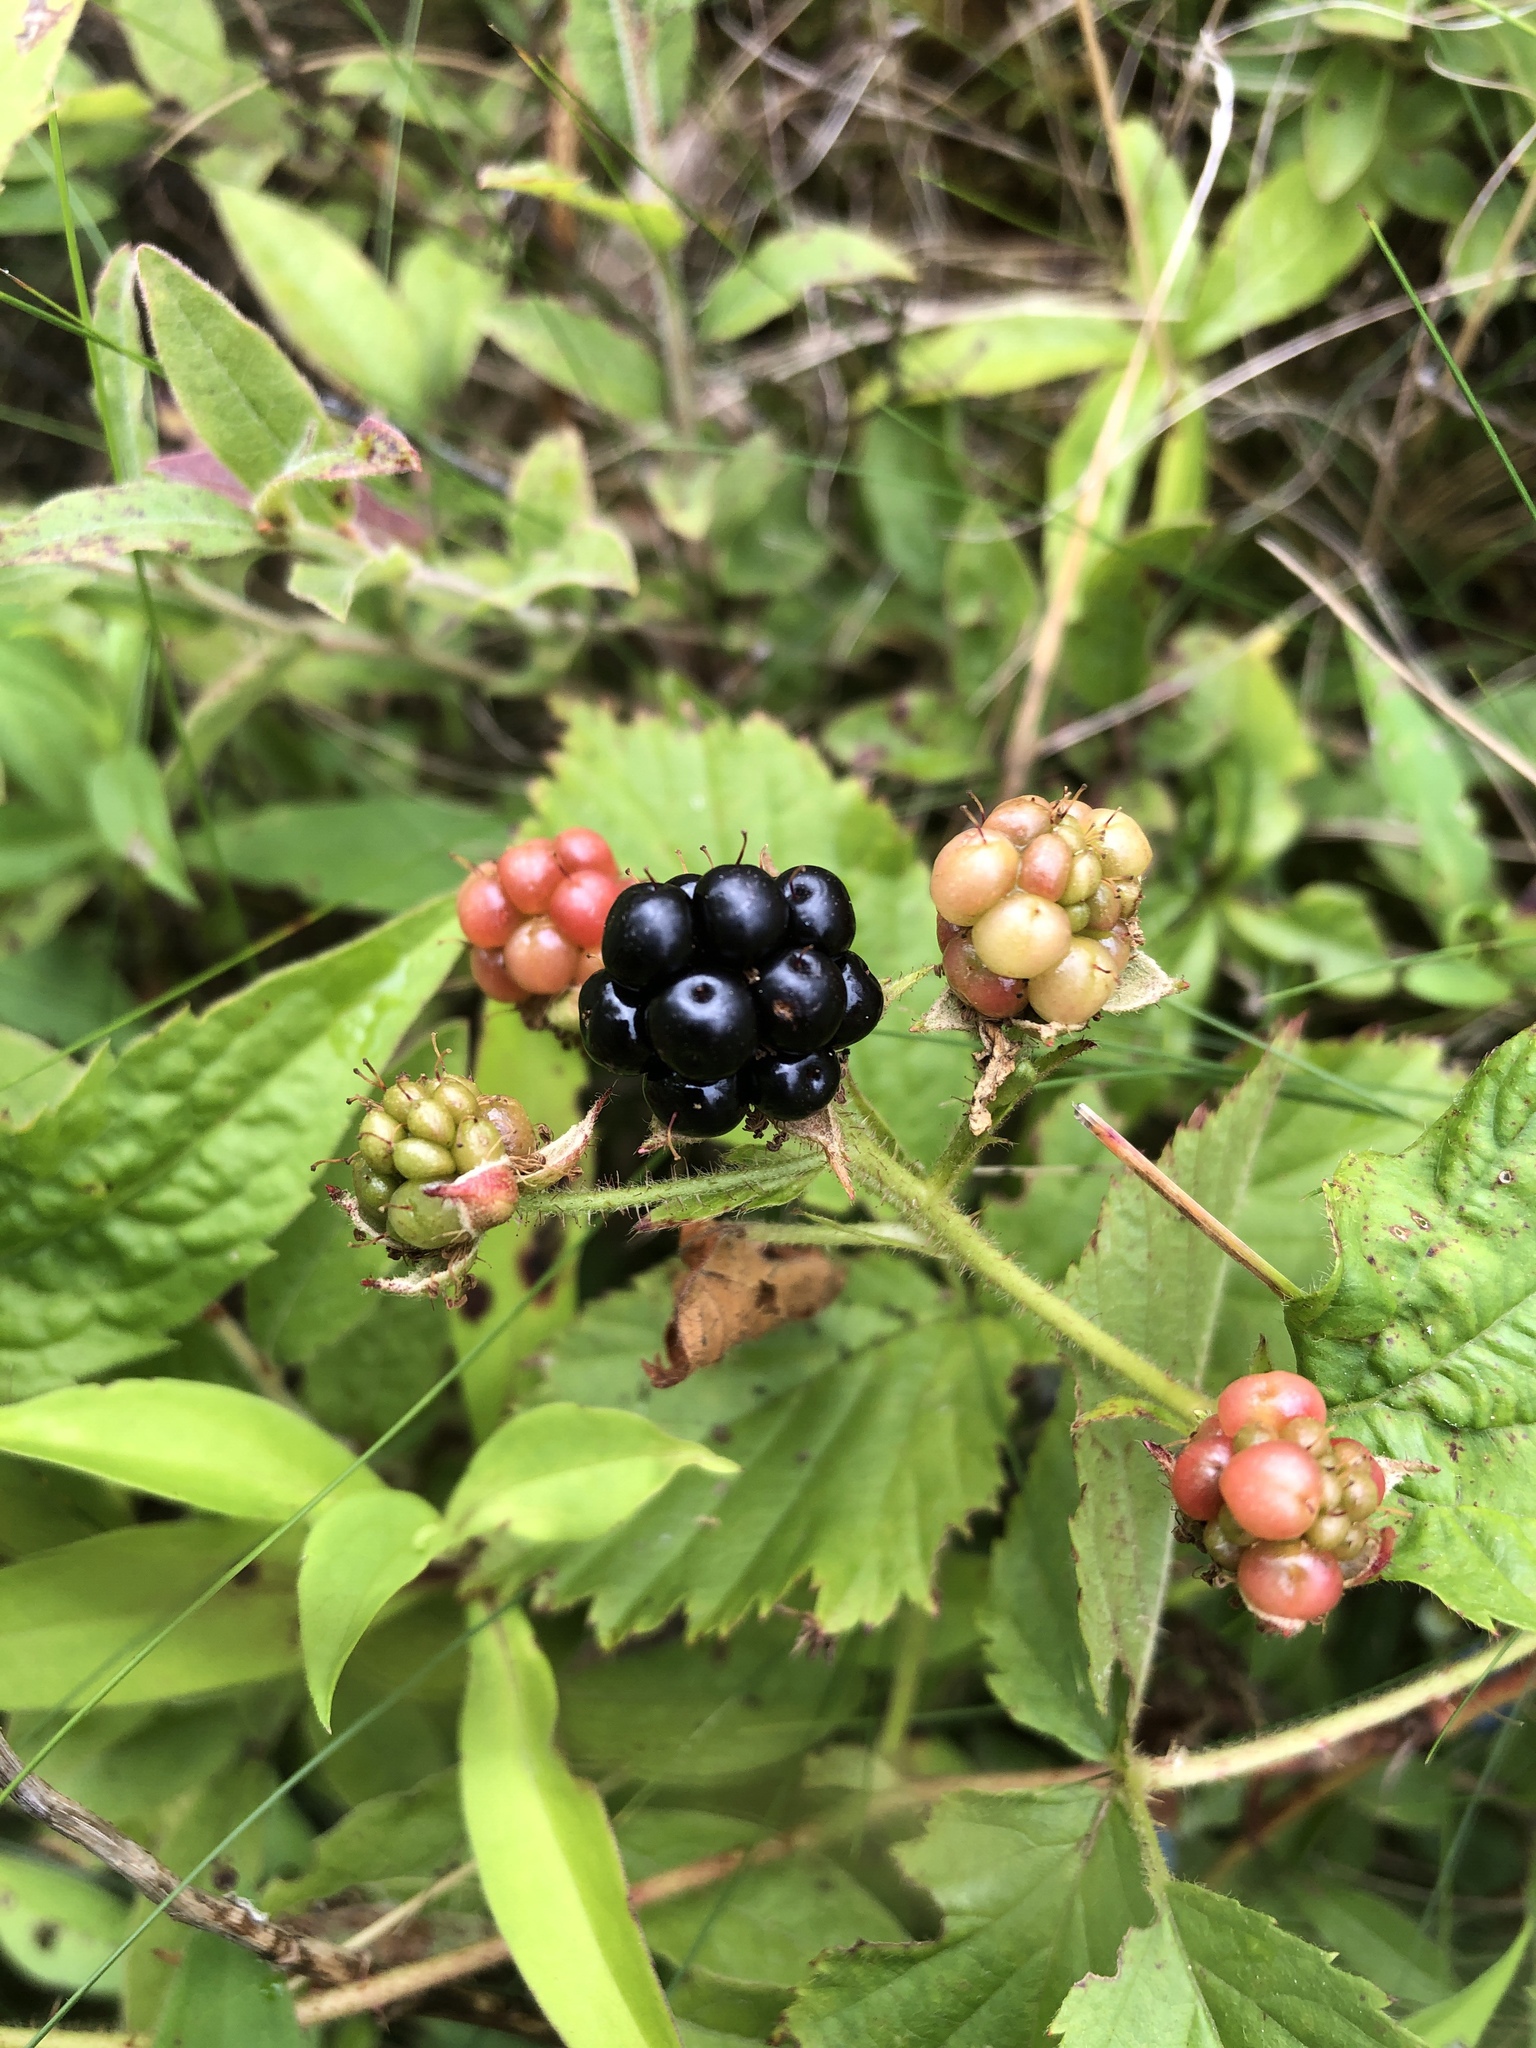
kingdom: Plantae
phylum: Tracheophyta
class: Magnoliopsida
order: Rosales
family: Rosaceae
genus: Rubus
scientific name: Rubus allegheniensis
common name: Allegheny blackberry
